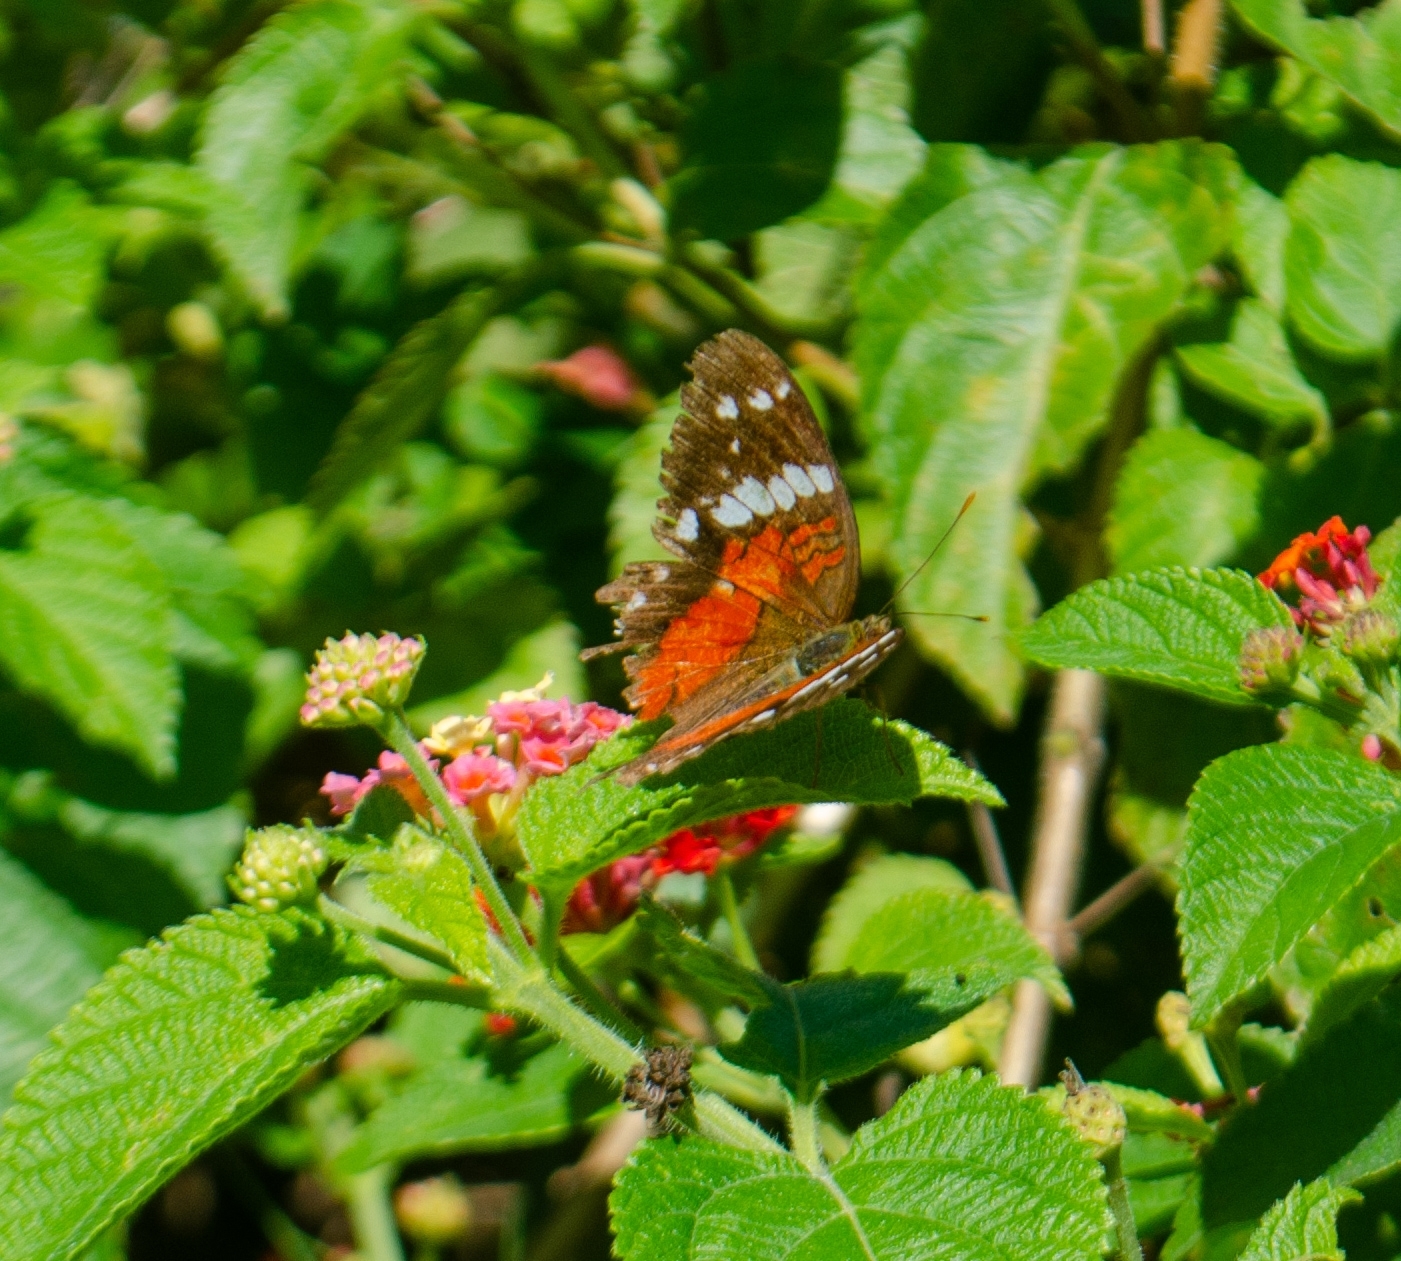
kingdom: Animalia
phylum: Arthropoda
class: Insecta
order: Lepidoptera
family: Nymphalidae
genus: Anartia
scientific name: Anartia amathea
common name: Red peacock
